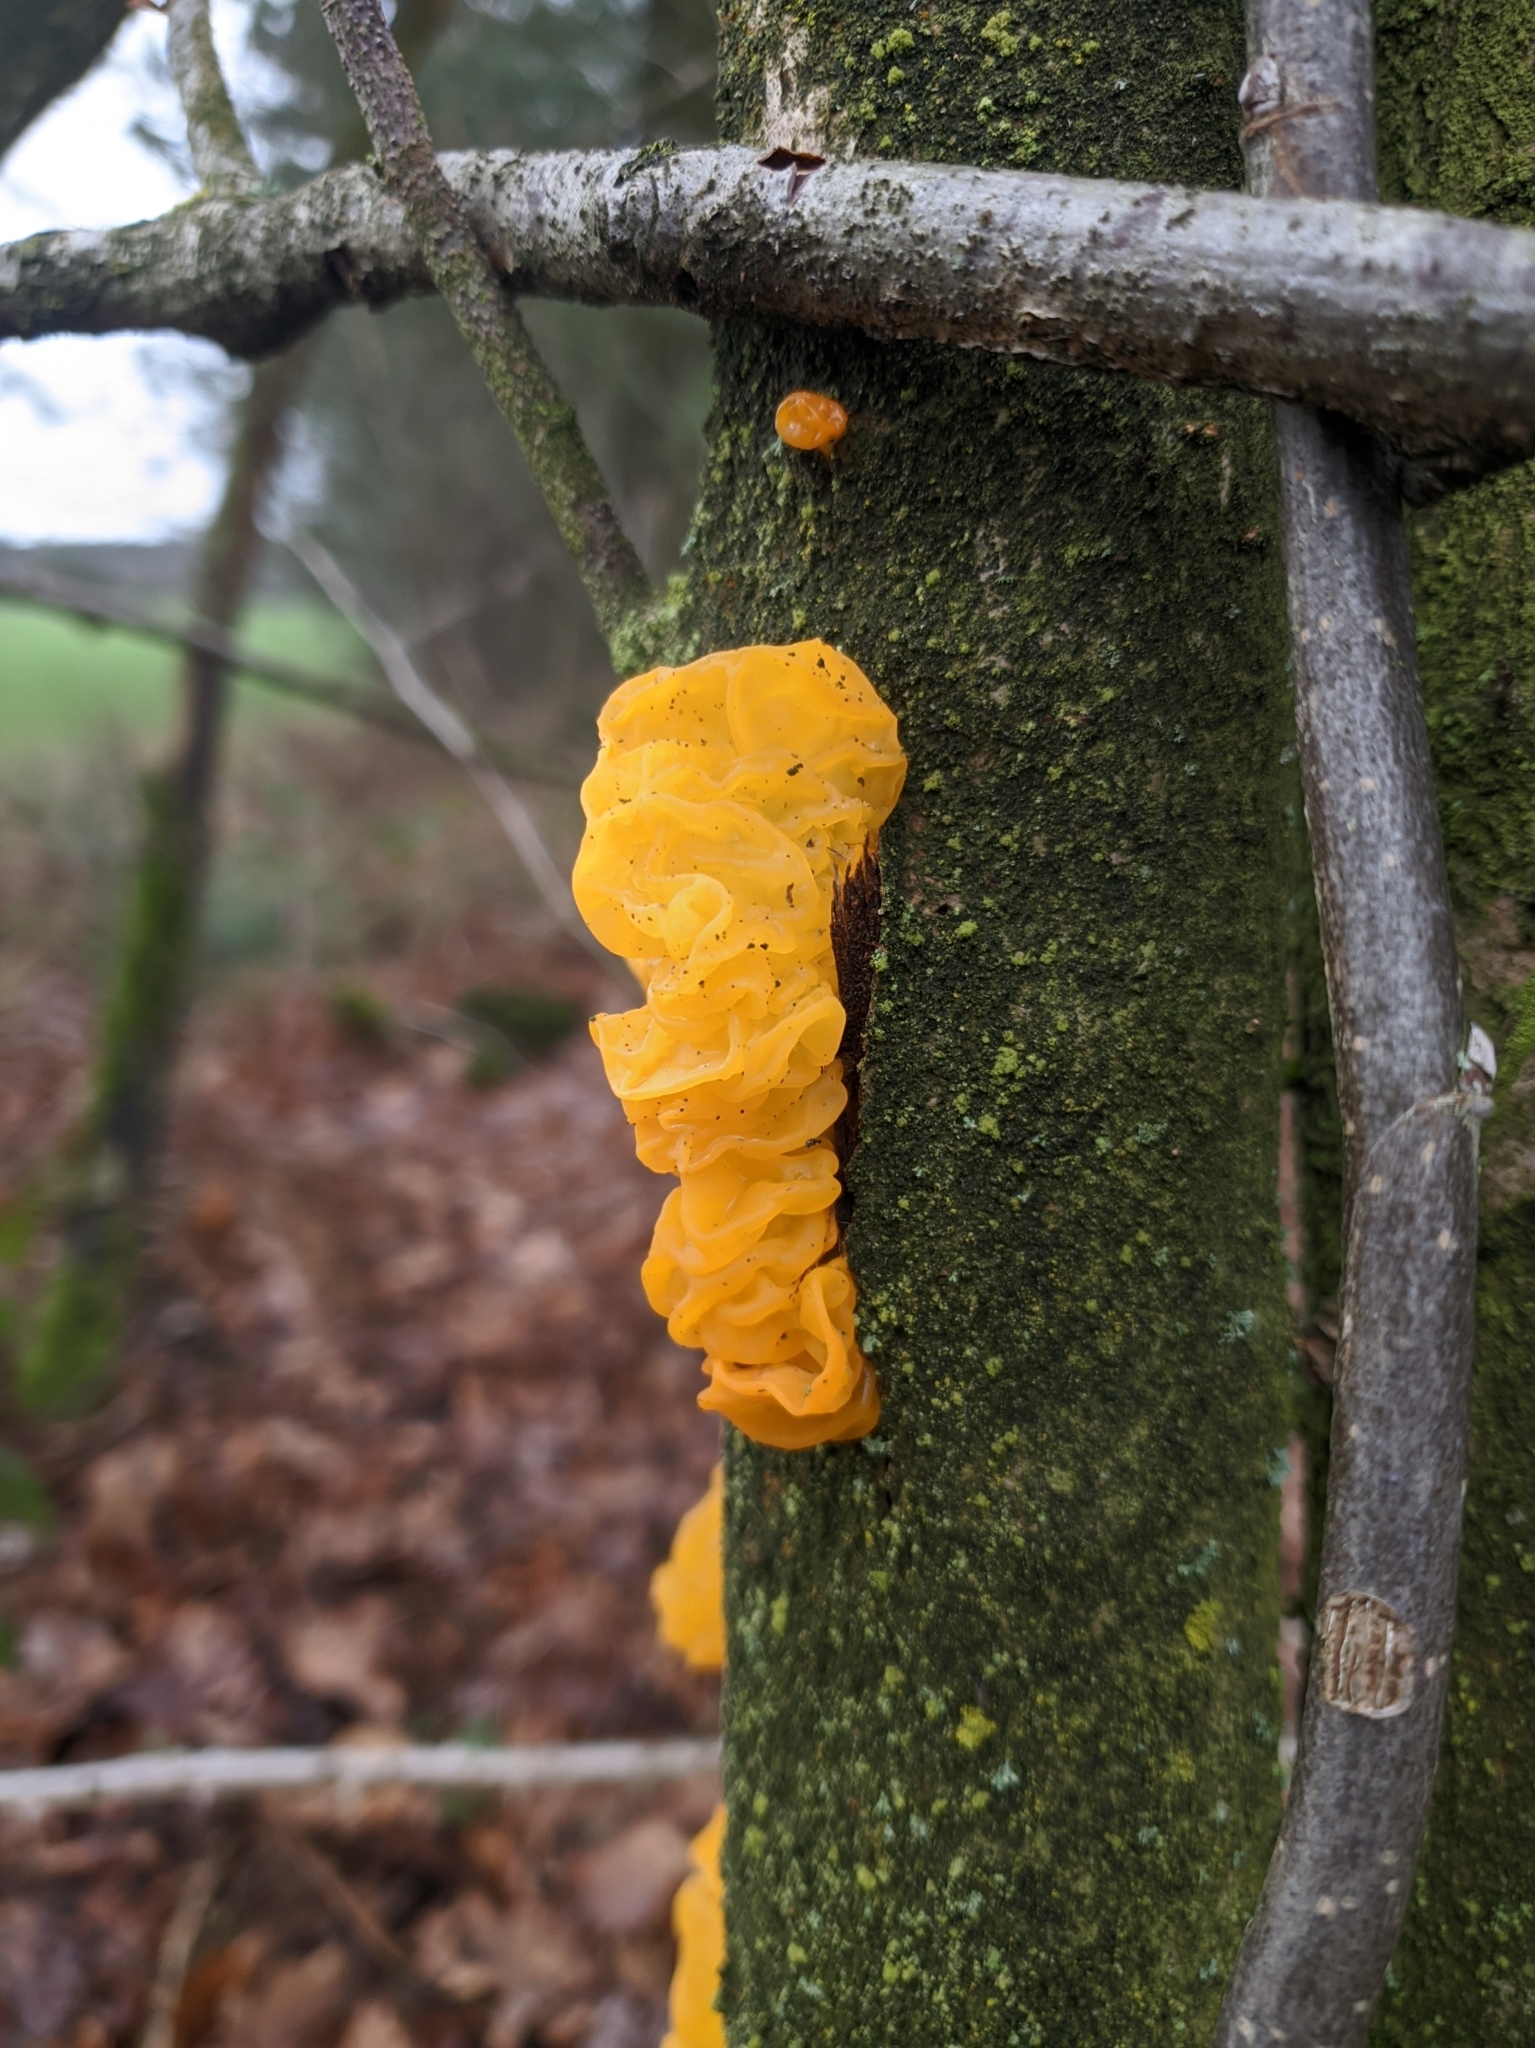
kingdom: Fungi
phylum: Basidiomycota
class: Tremellomycetes
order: Tremellales
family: Tremellaceae
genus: Tremella
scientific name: Tremella mesenterica
